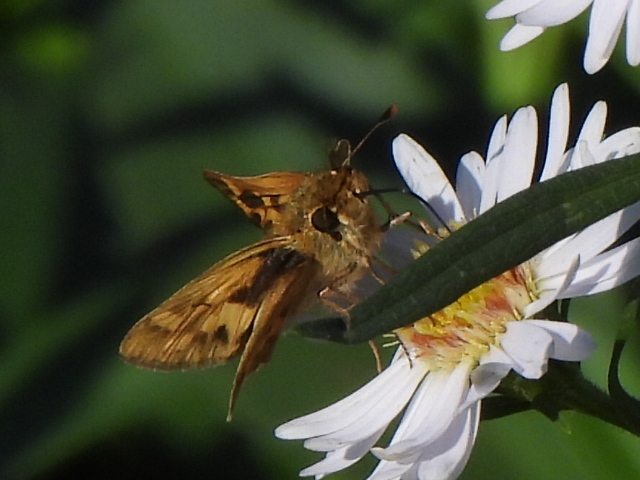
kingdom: Animalia
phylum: Arthropoda
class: Insecta
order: Lepidoptera
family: Hesperiidae
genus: Hylephila
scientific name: Hylephila phyleus
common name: Fiery skipper
